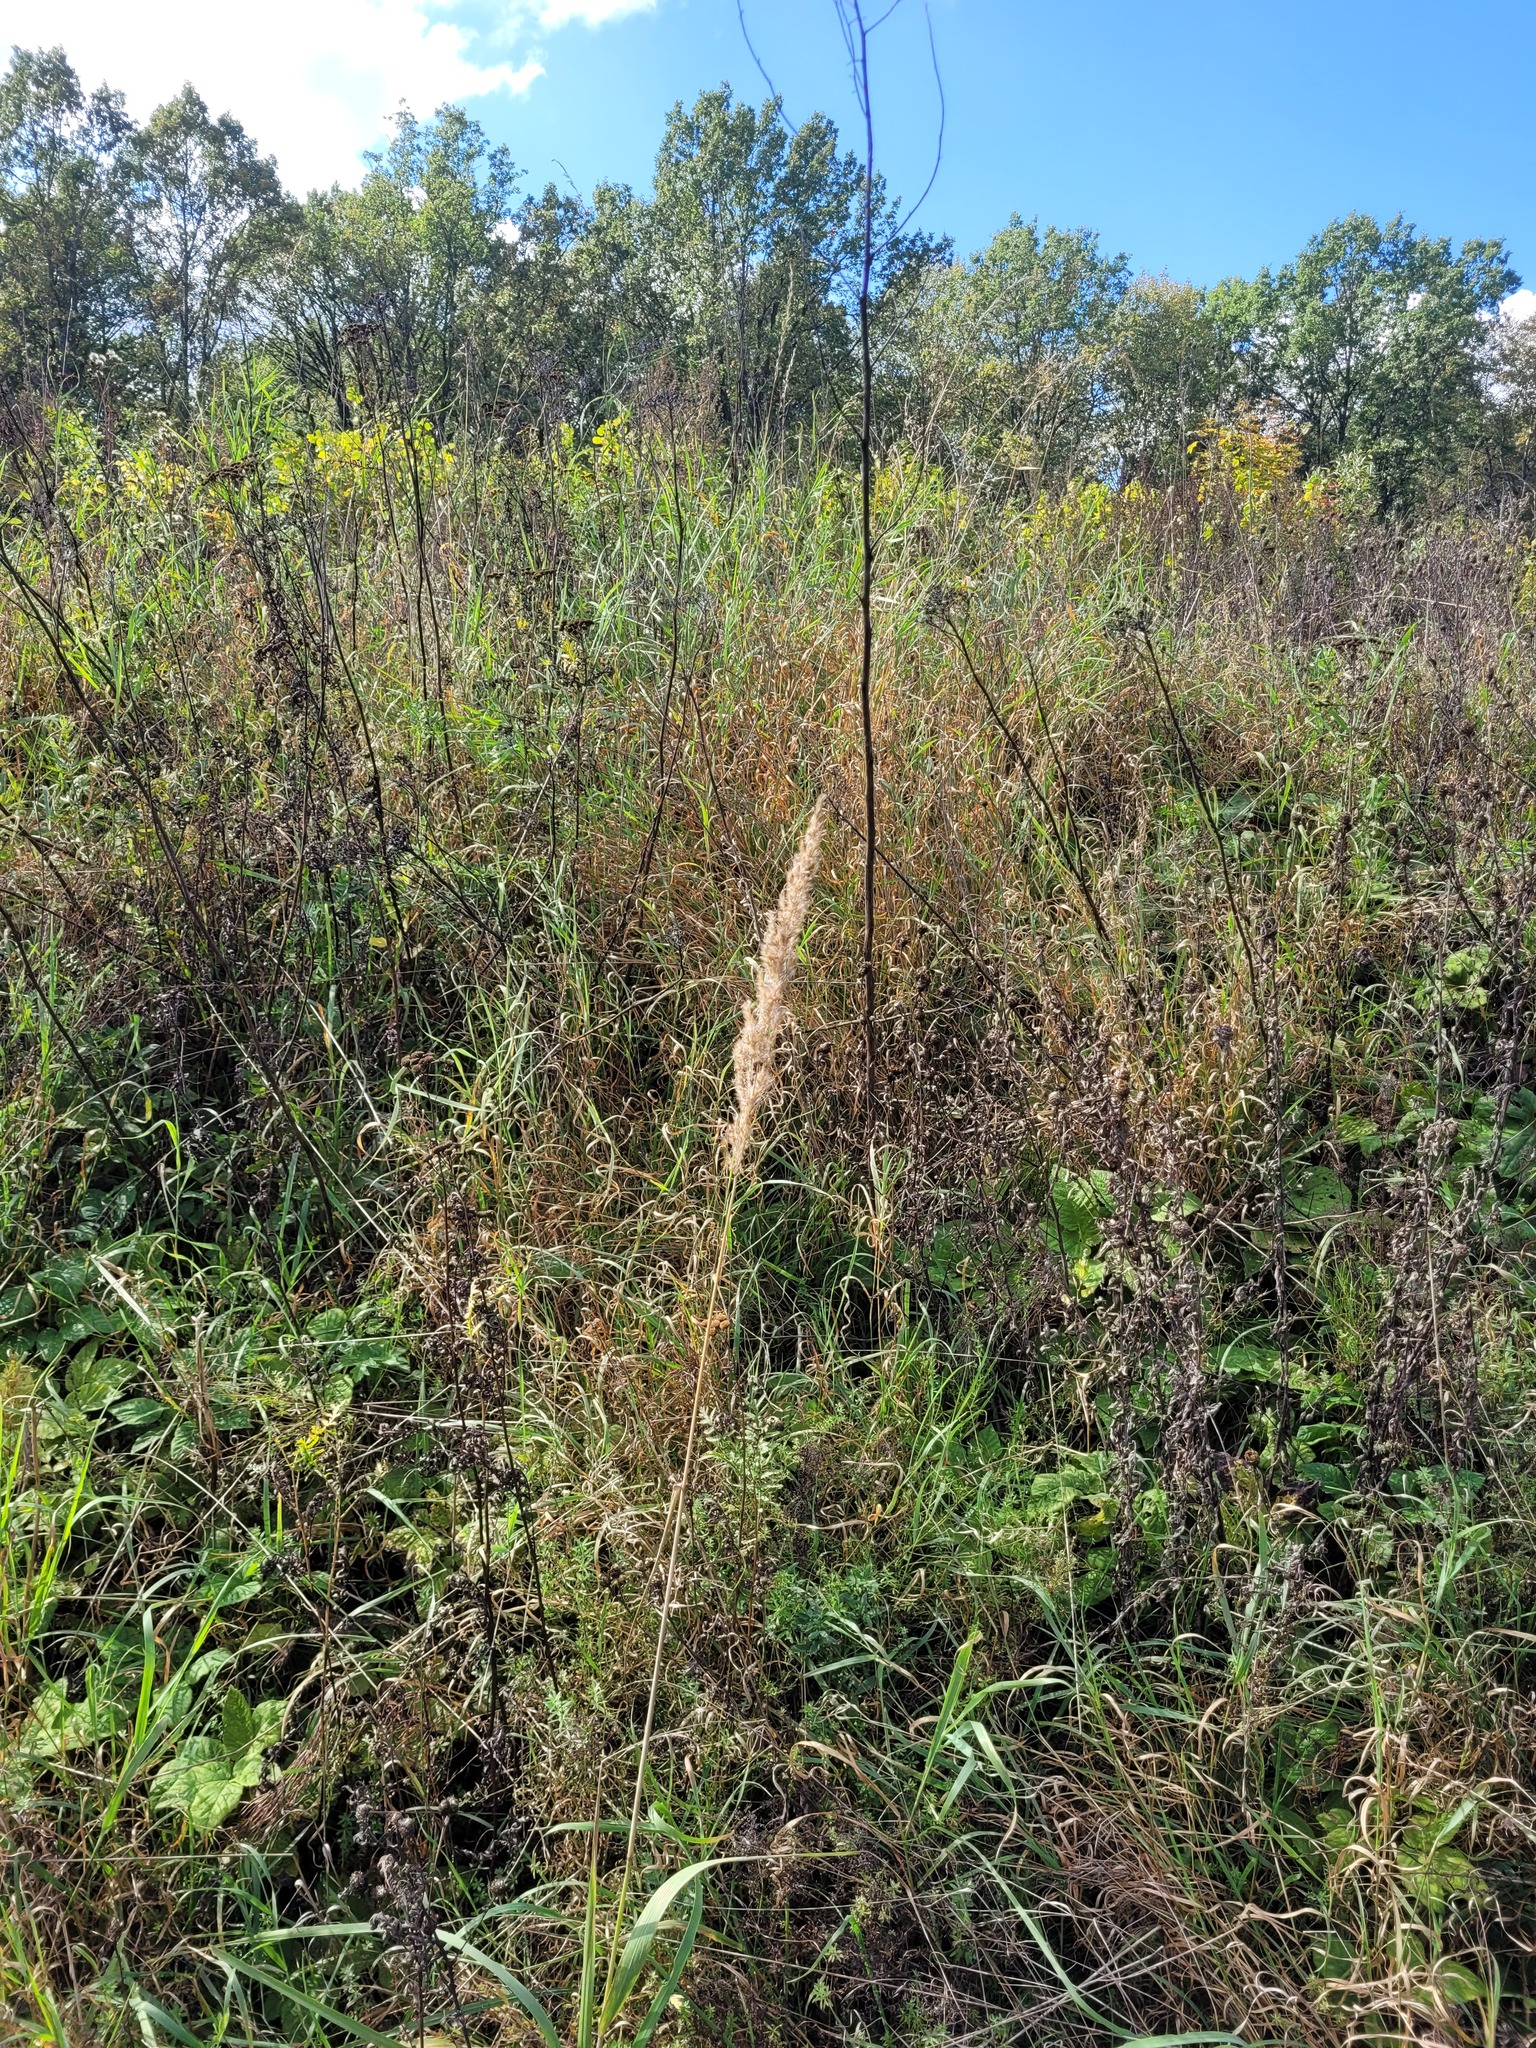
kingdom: Plantae
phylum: Tracheophyta
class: Liliopsida
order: Poales
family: Poaceae
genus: Calamagrostis
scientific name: Calamagrostis epigejos
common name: Wood small-reed
